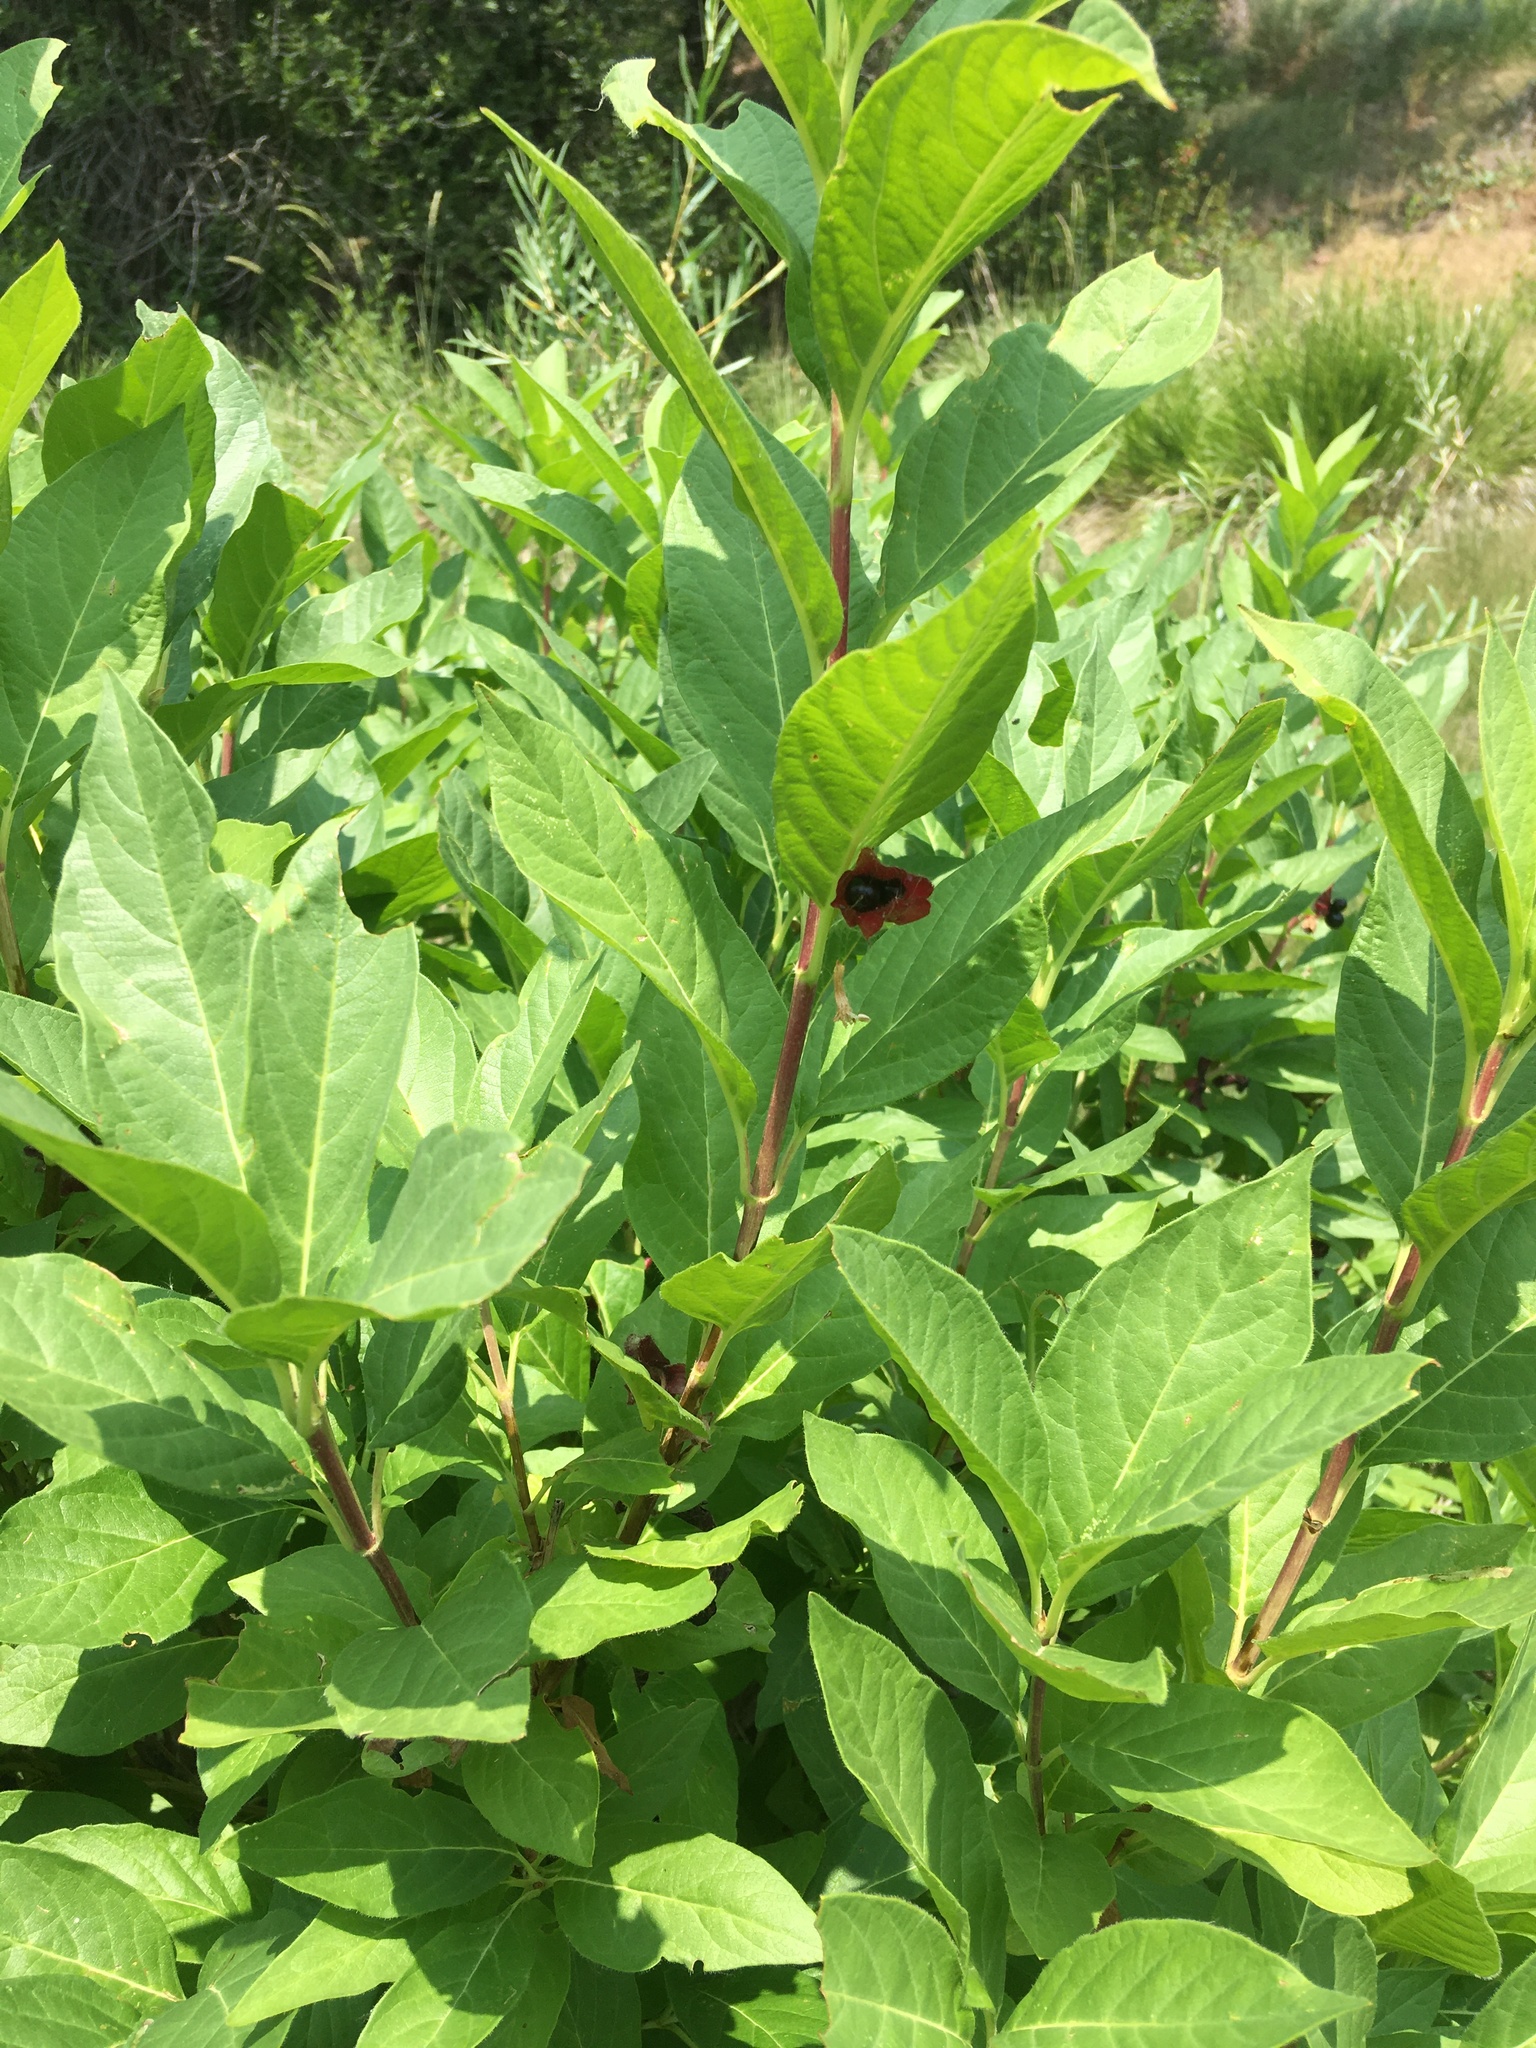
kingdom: Plantae
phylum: Tracheophyta
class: Magnoliopsida
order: Dipsacales
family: Caprifoliaceae
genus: Lonicera
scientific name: Lonicera involucrata
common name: Californian honeysuckle
